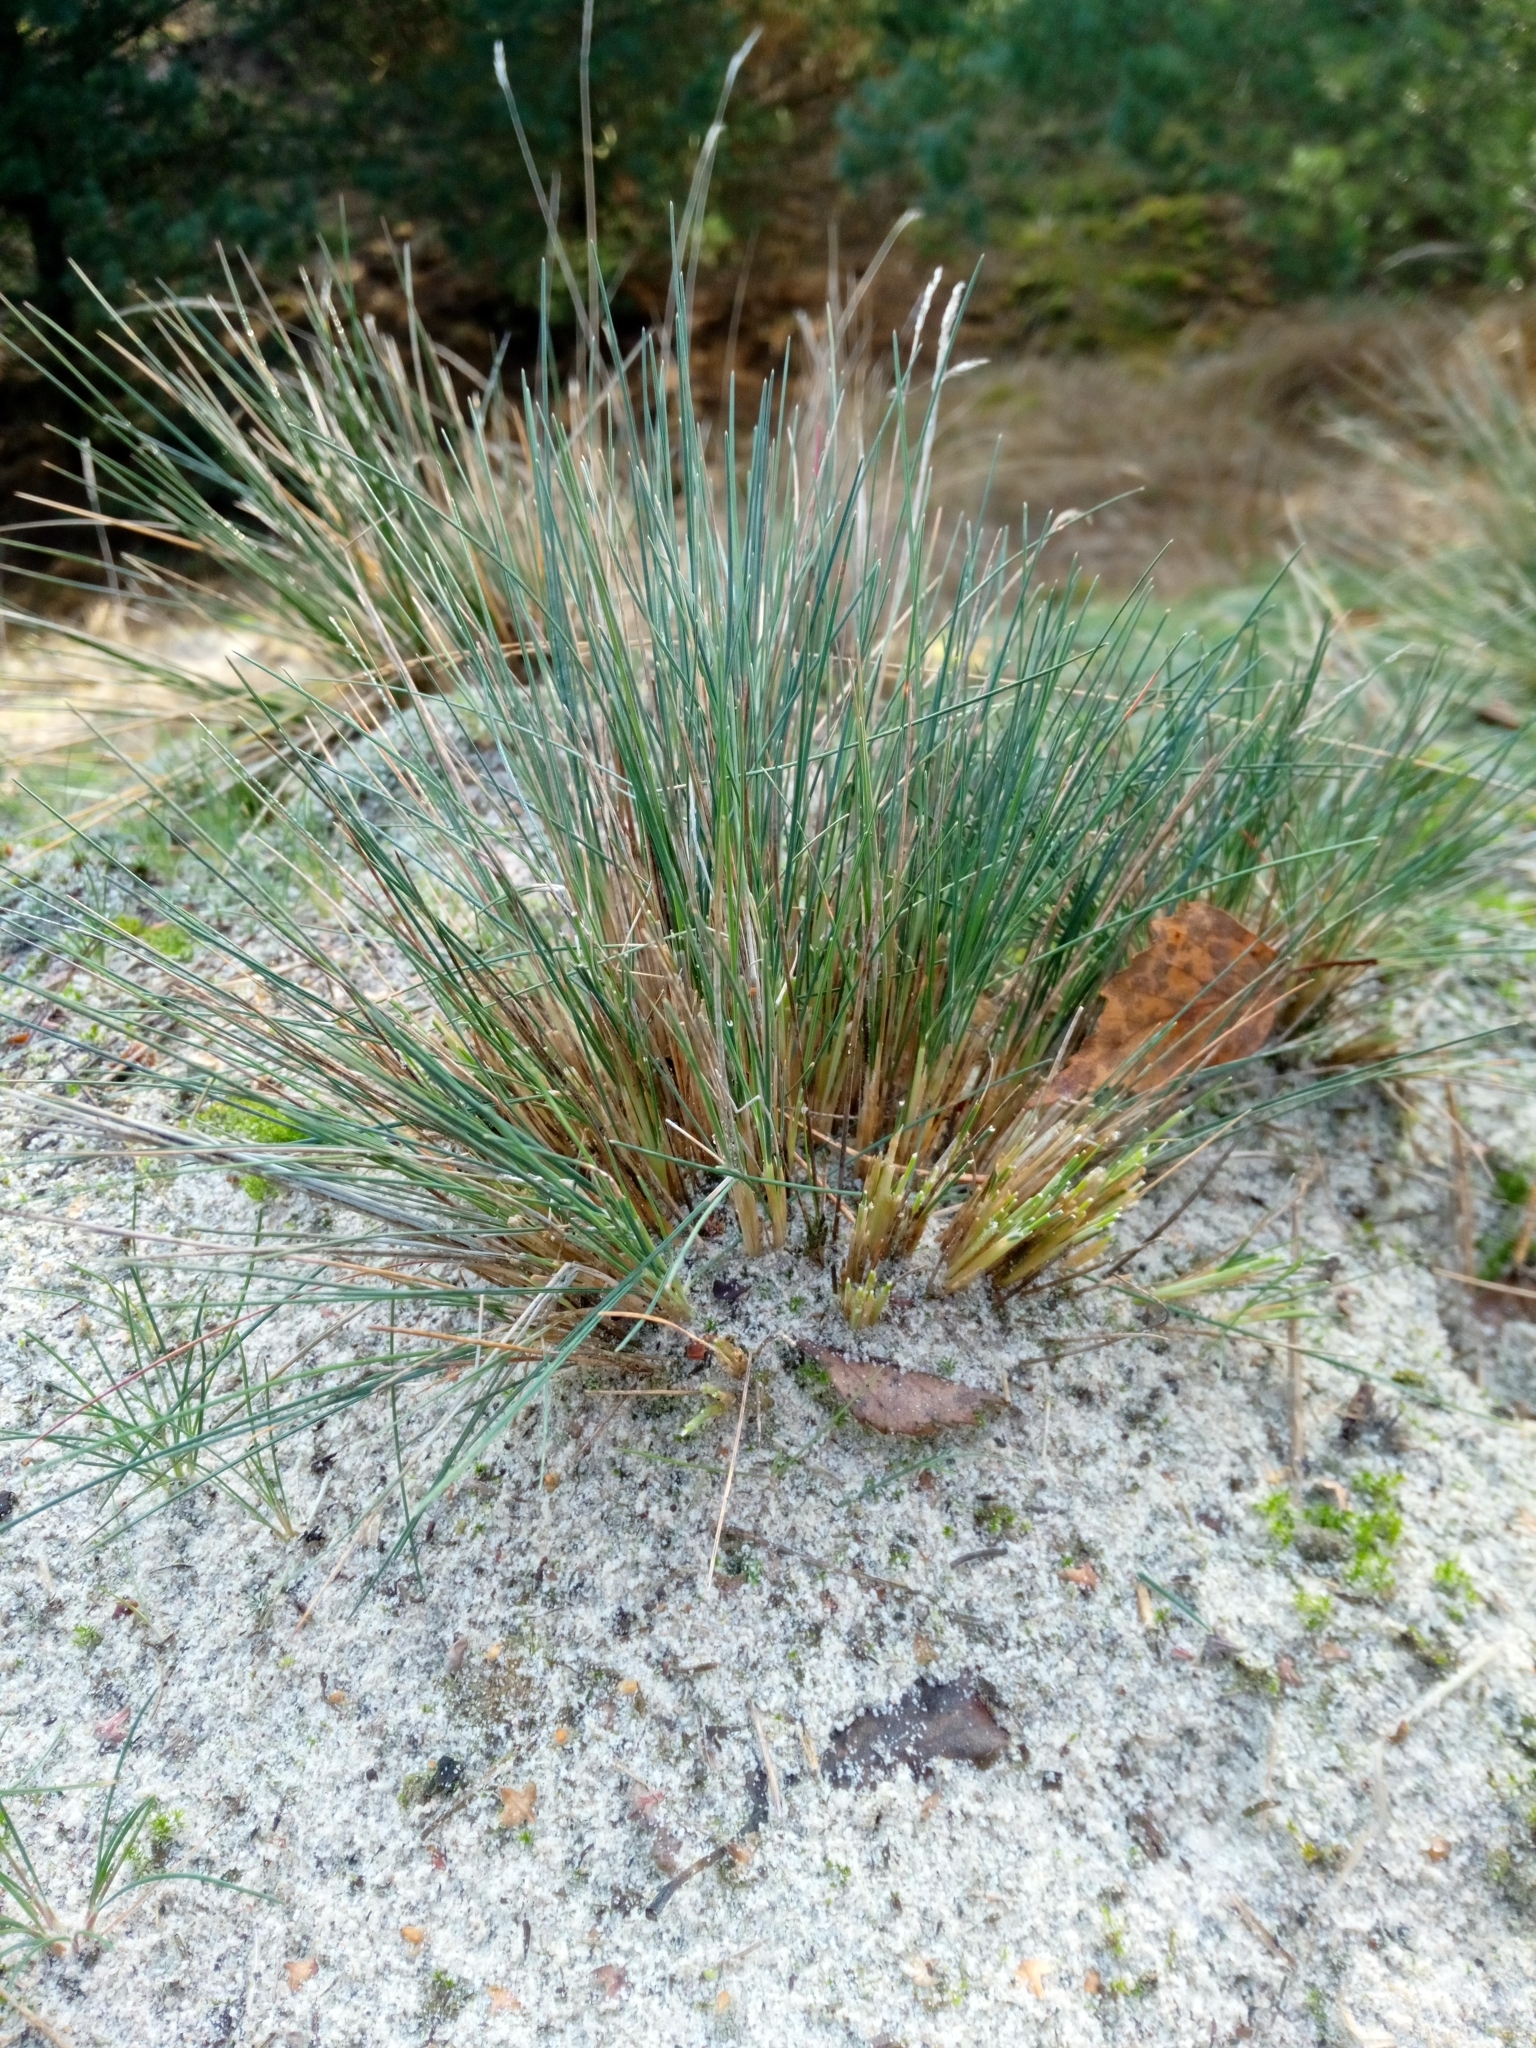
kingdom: Plantae
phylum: Tracheophyta
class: Liliopsida
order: Poales
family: Poaceae
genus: Corynephorus
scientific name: Corynephorus canescens
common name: Grey hair-grass
